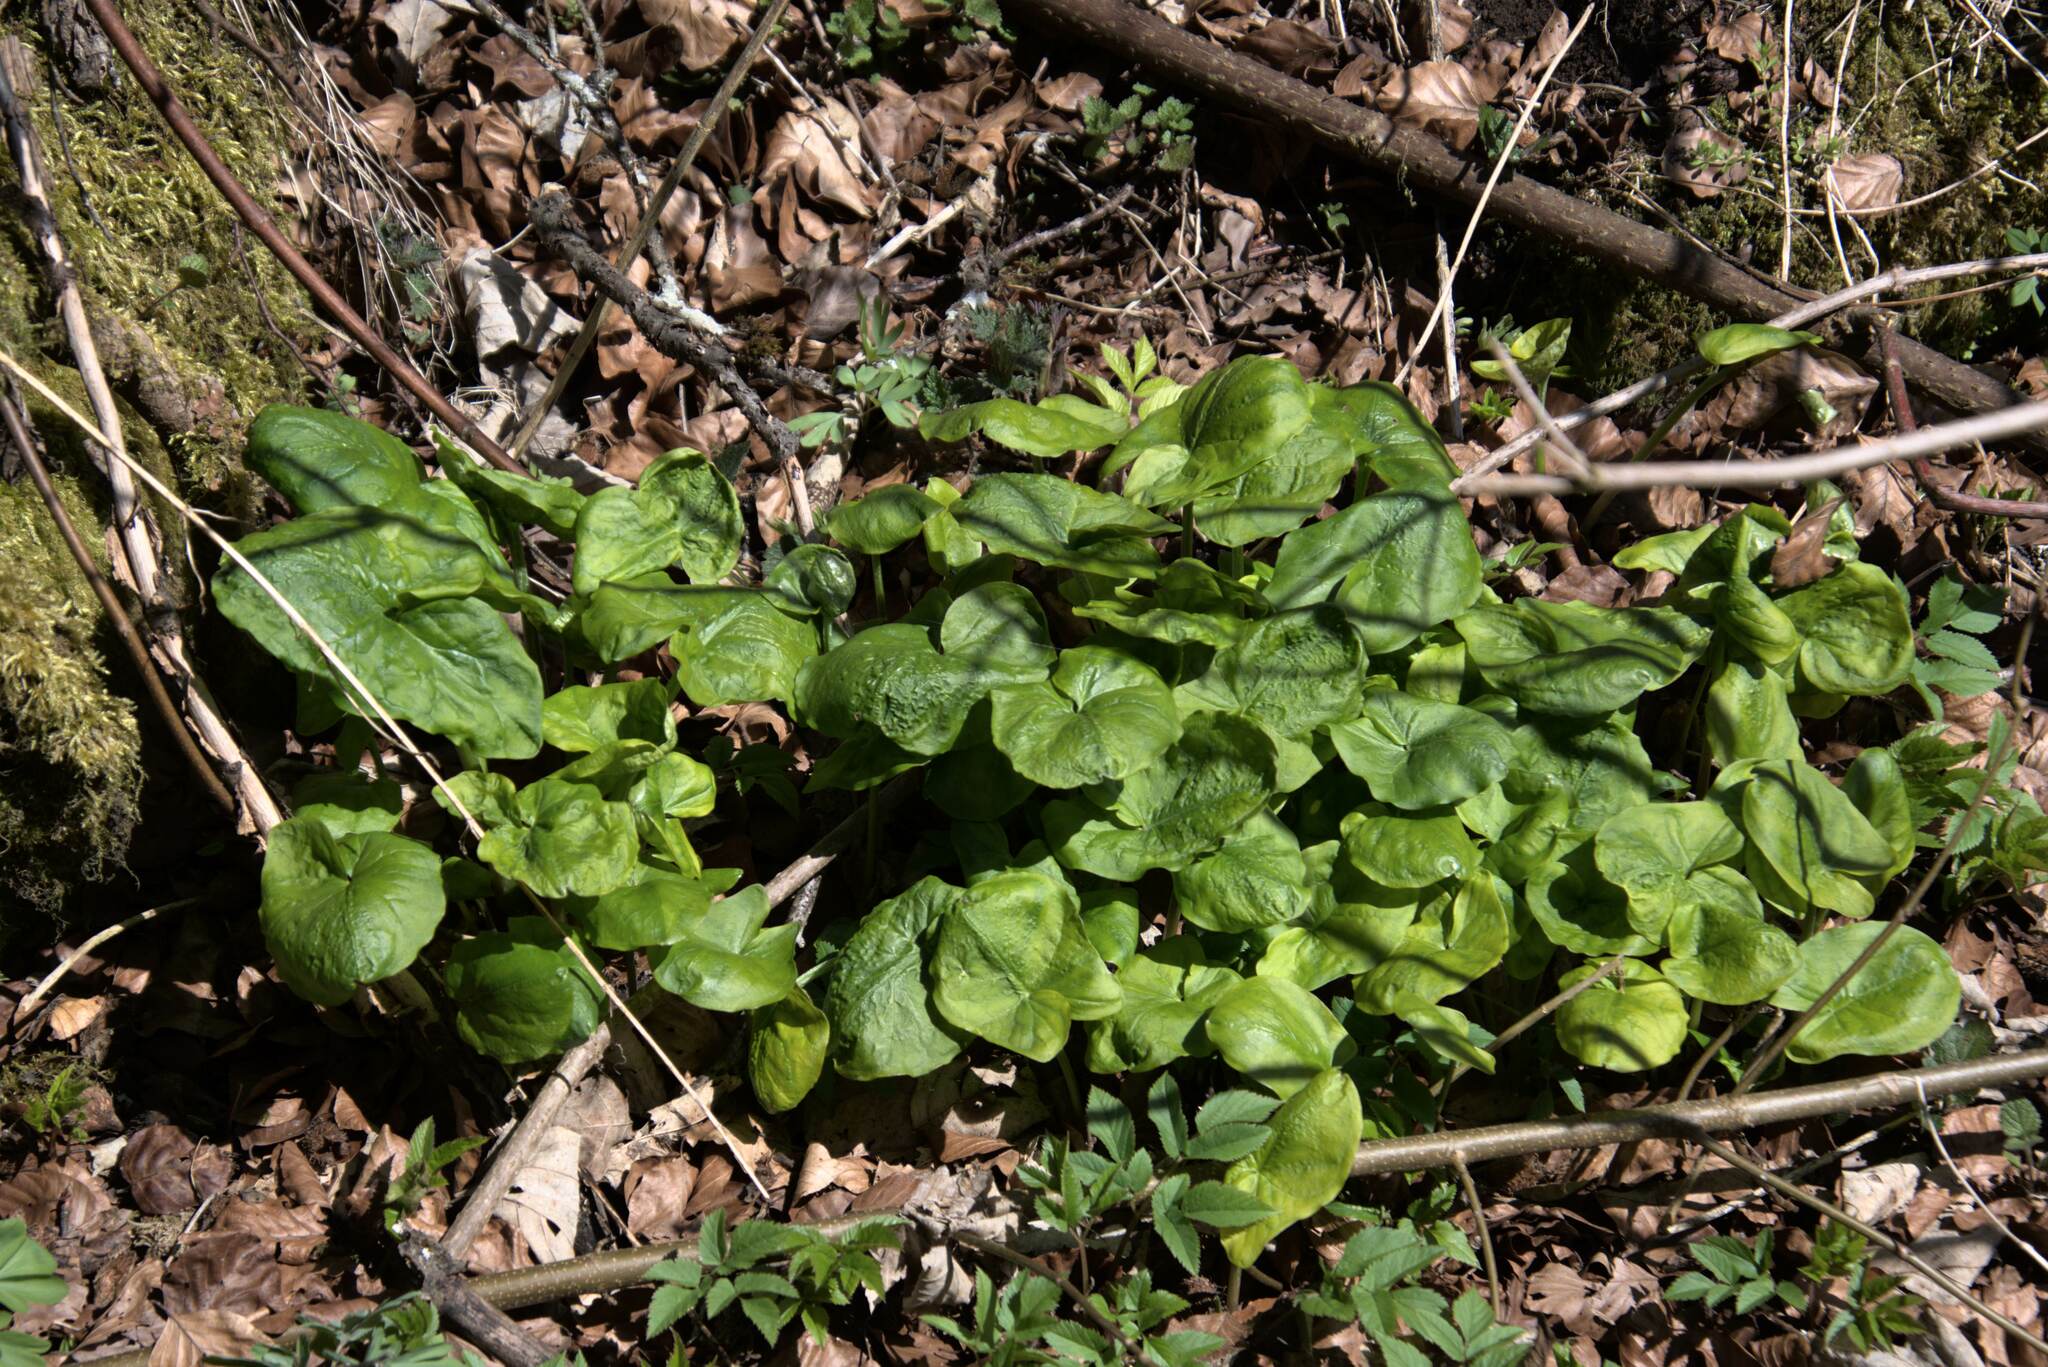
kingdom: Plantae
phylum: Tracheophyta
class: Liliopsida
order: Alismatales
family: Araceae
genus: Arum
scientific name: Arum maculatum
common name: Lords-and-ladies
